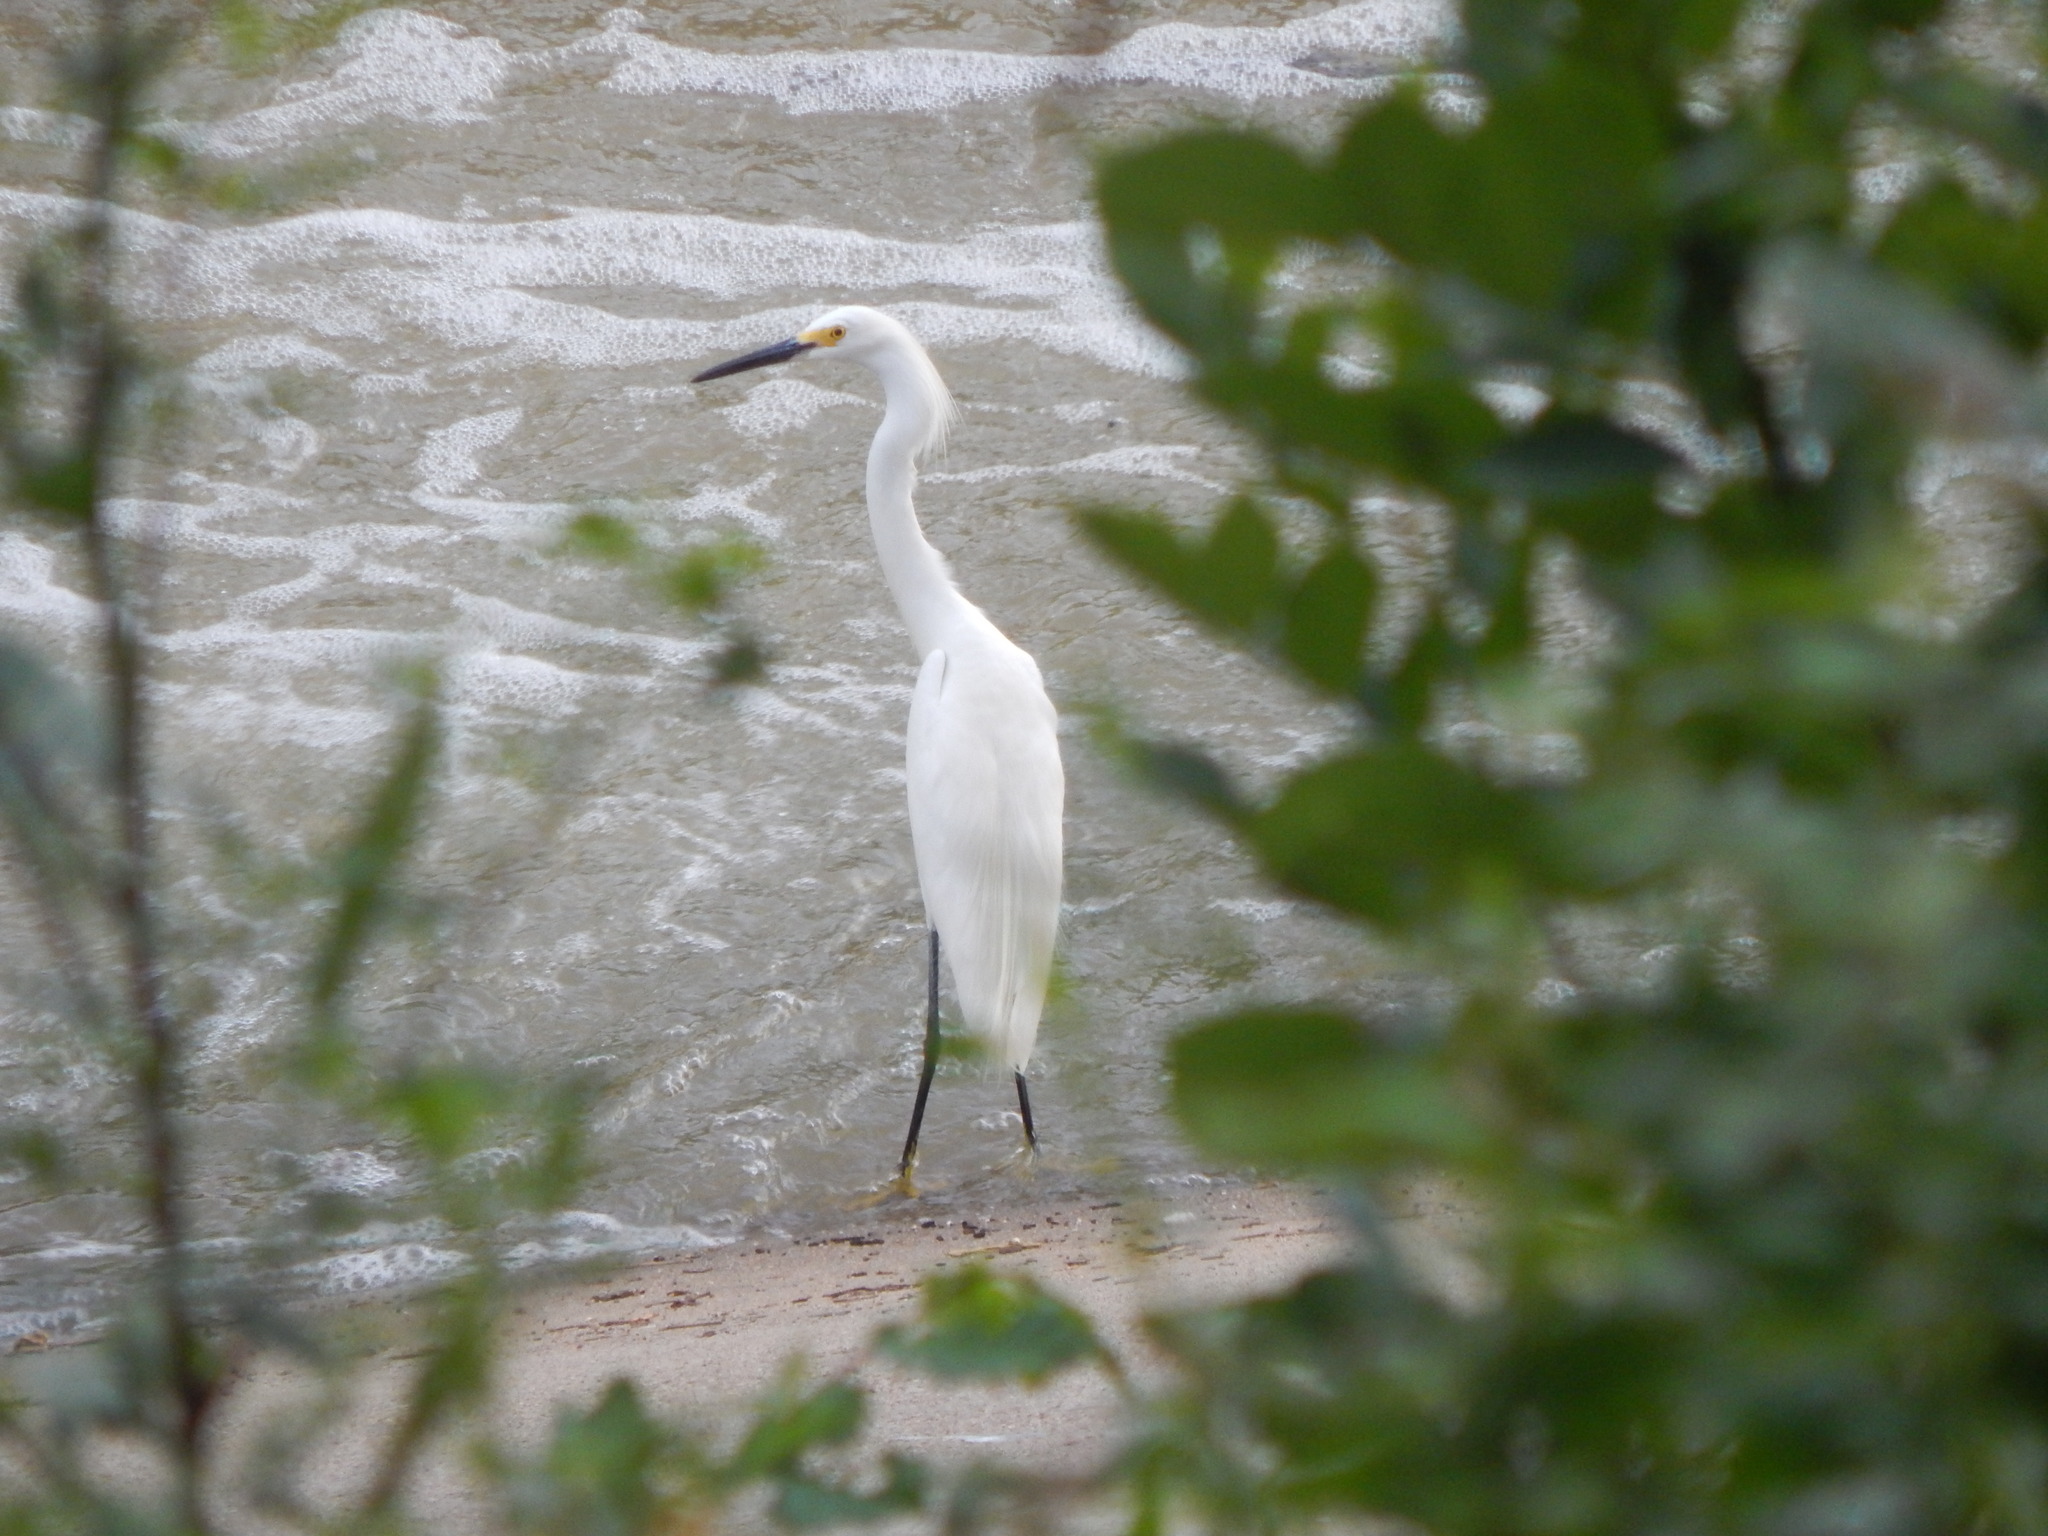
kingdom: Animalia
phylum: Chordata
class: Aves
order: Pelecaniformes
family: Ardeidae
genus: Egretta
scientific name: Egretta thula
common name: Snowy egret
